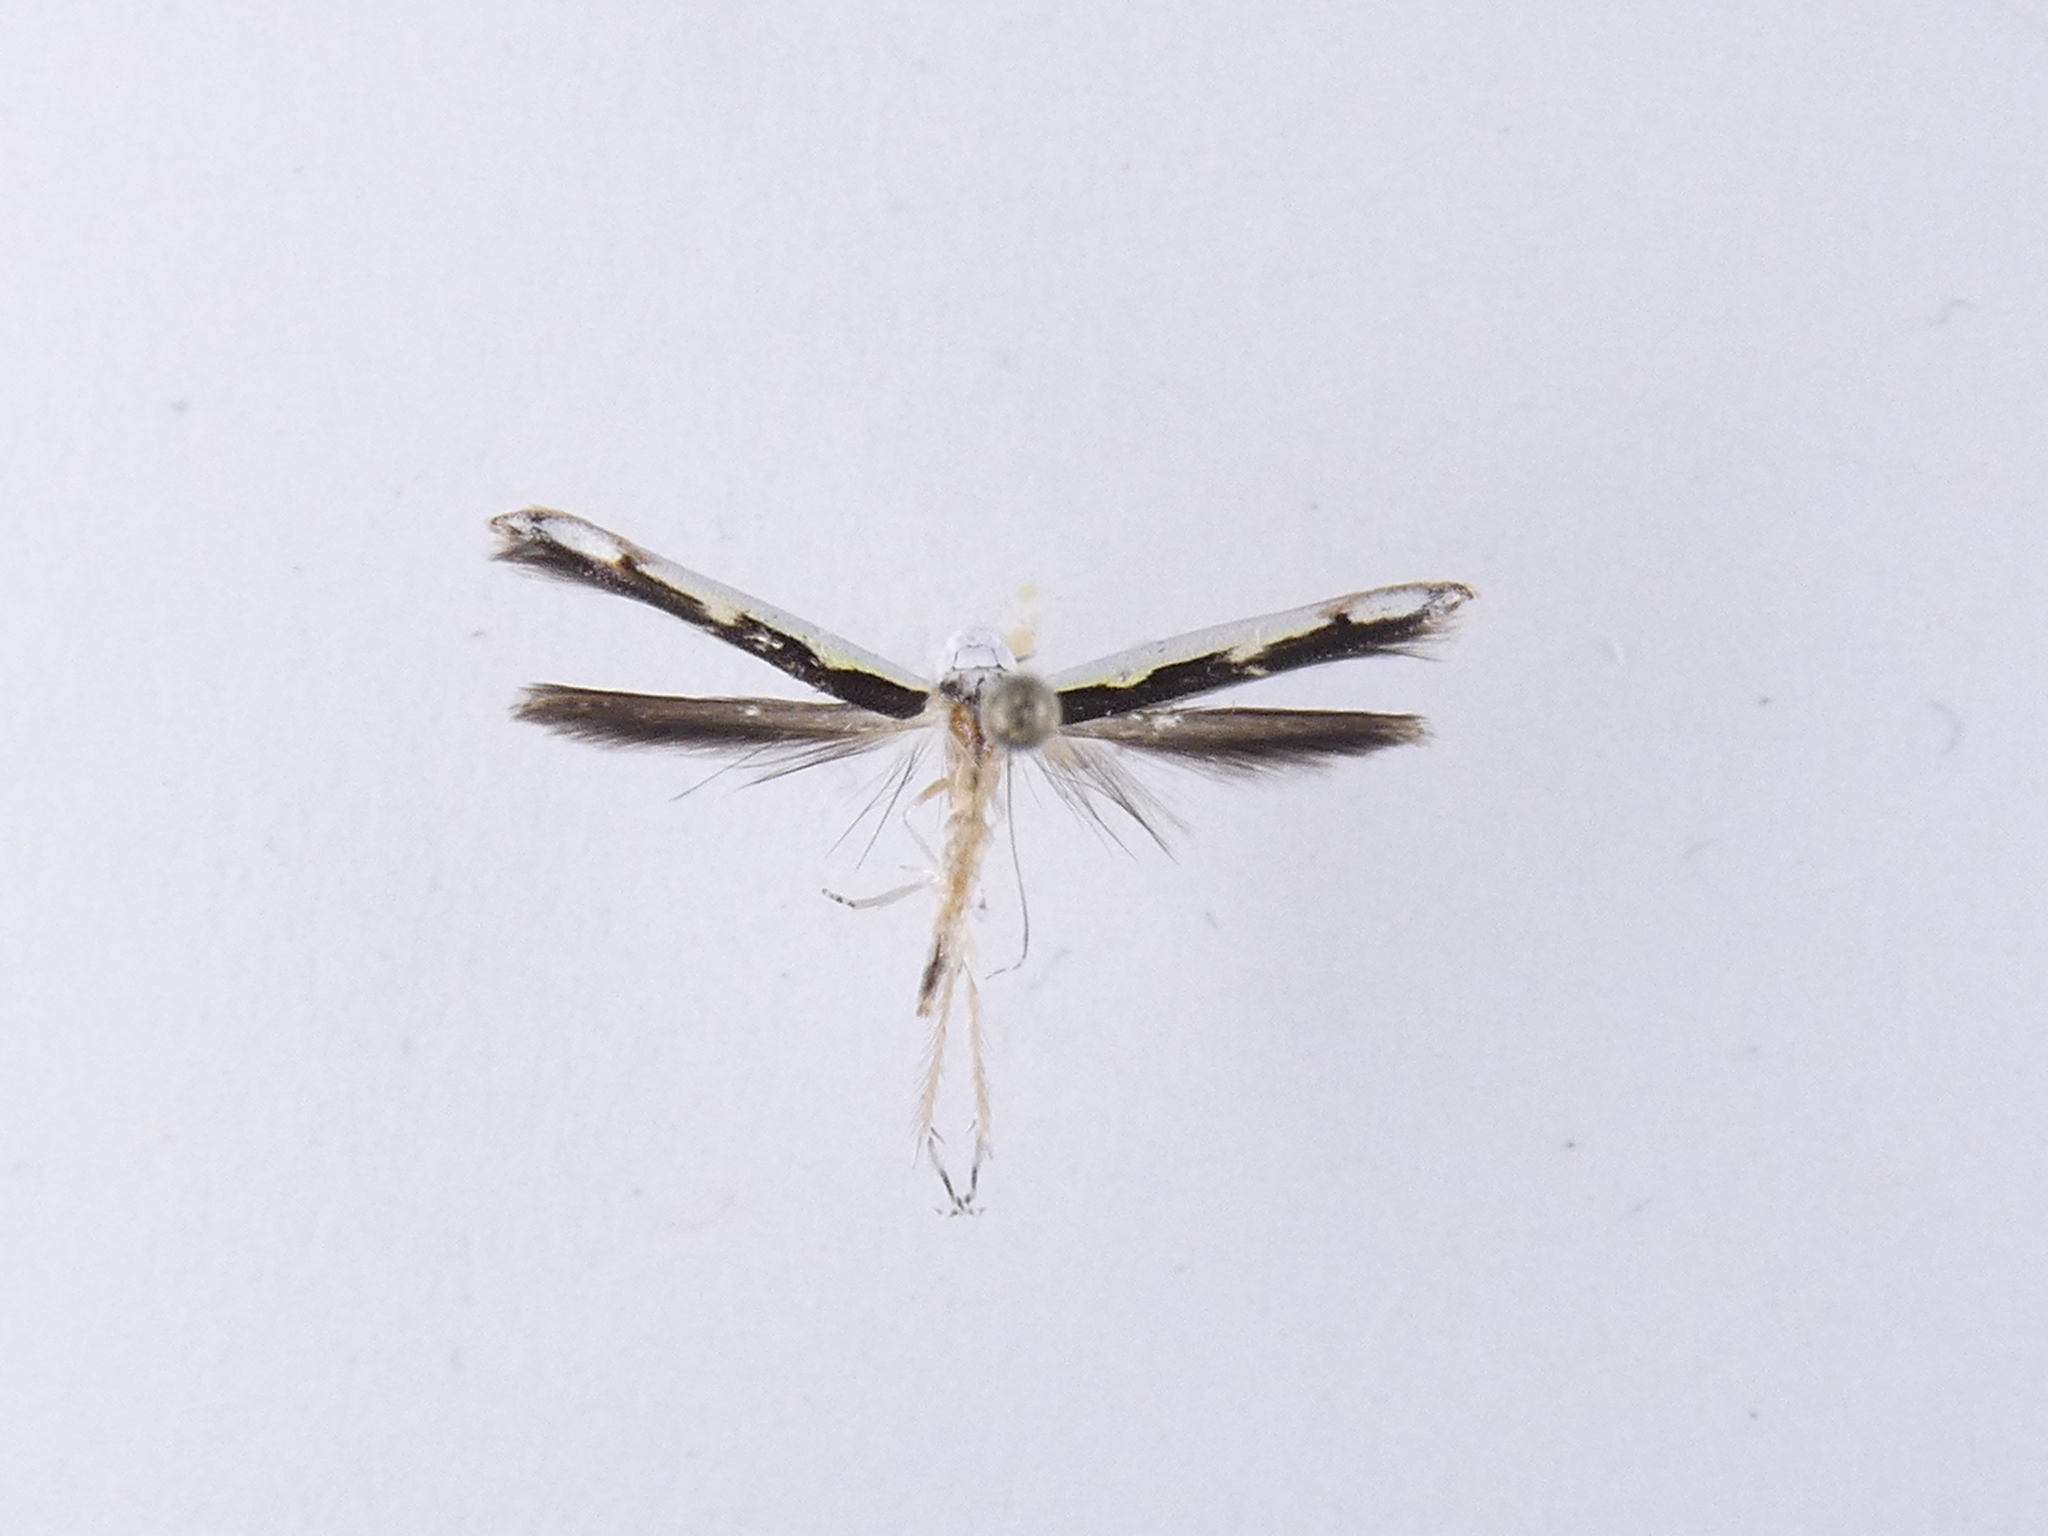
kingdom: Animalia
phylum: Arthropoda
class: Insecta
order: Lepidoptera
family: Roeslerstammiidae
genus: Vanicela
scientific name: Vanicela disjunctella
